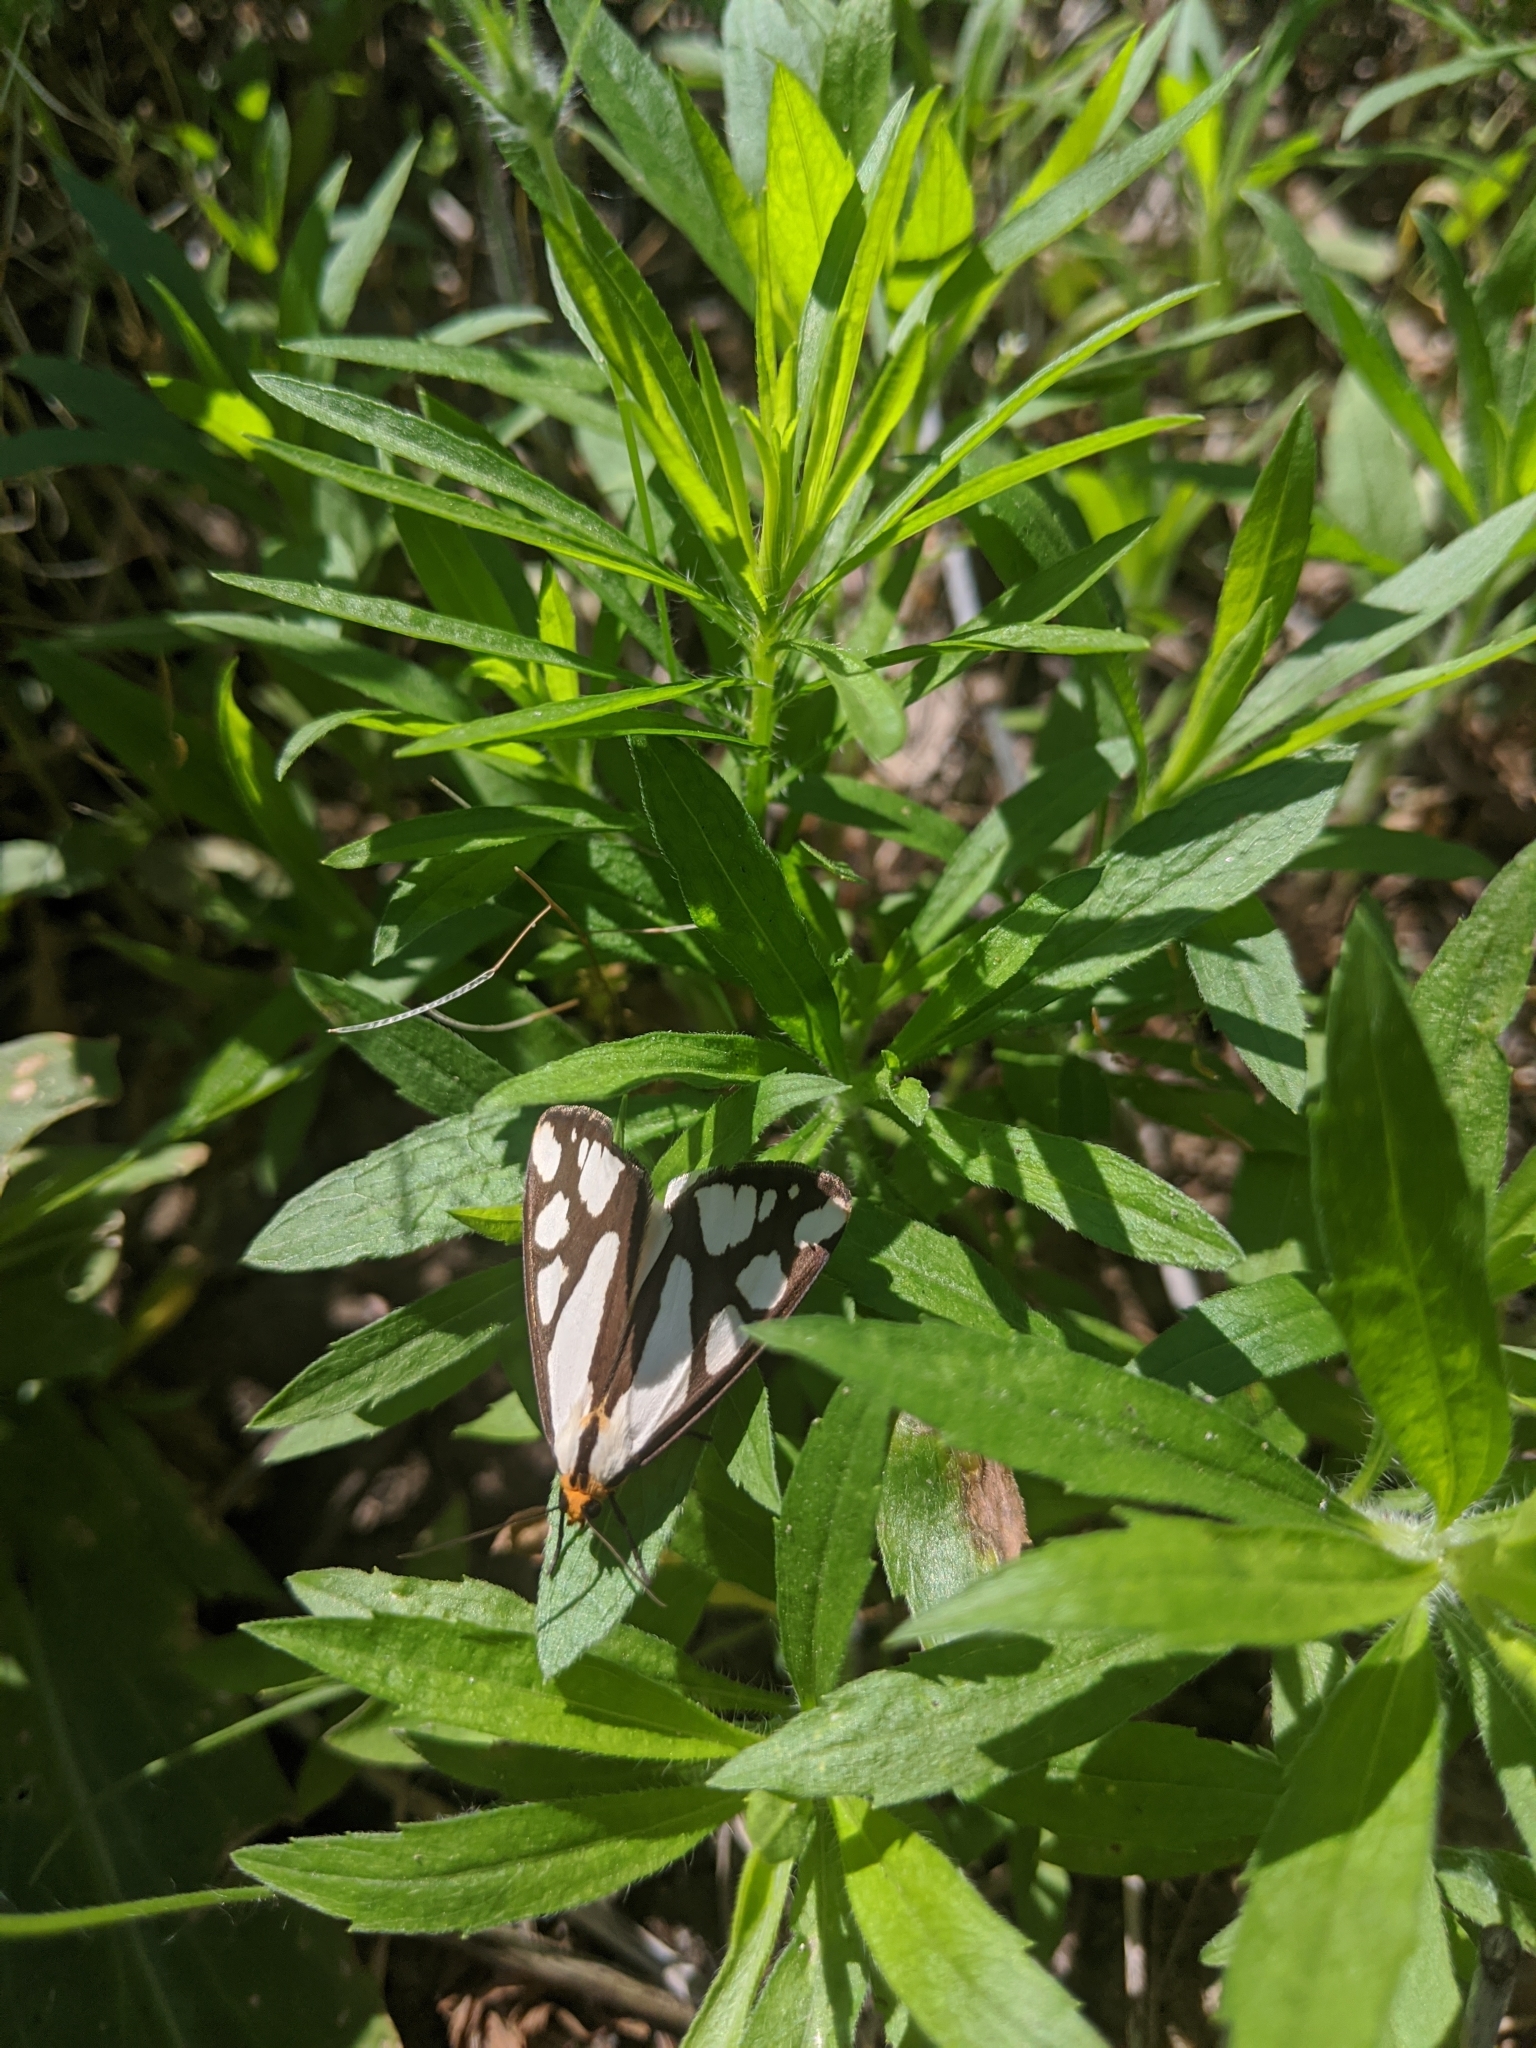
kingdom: Animalia
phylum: Arthropoda
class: Insecta
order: Lepidoptera
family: Erebidae
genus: Haploa
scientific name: Haploa reversa
